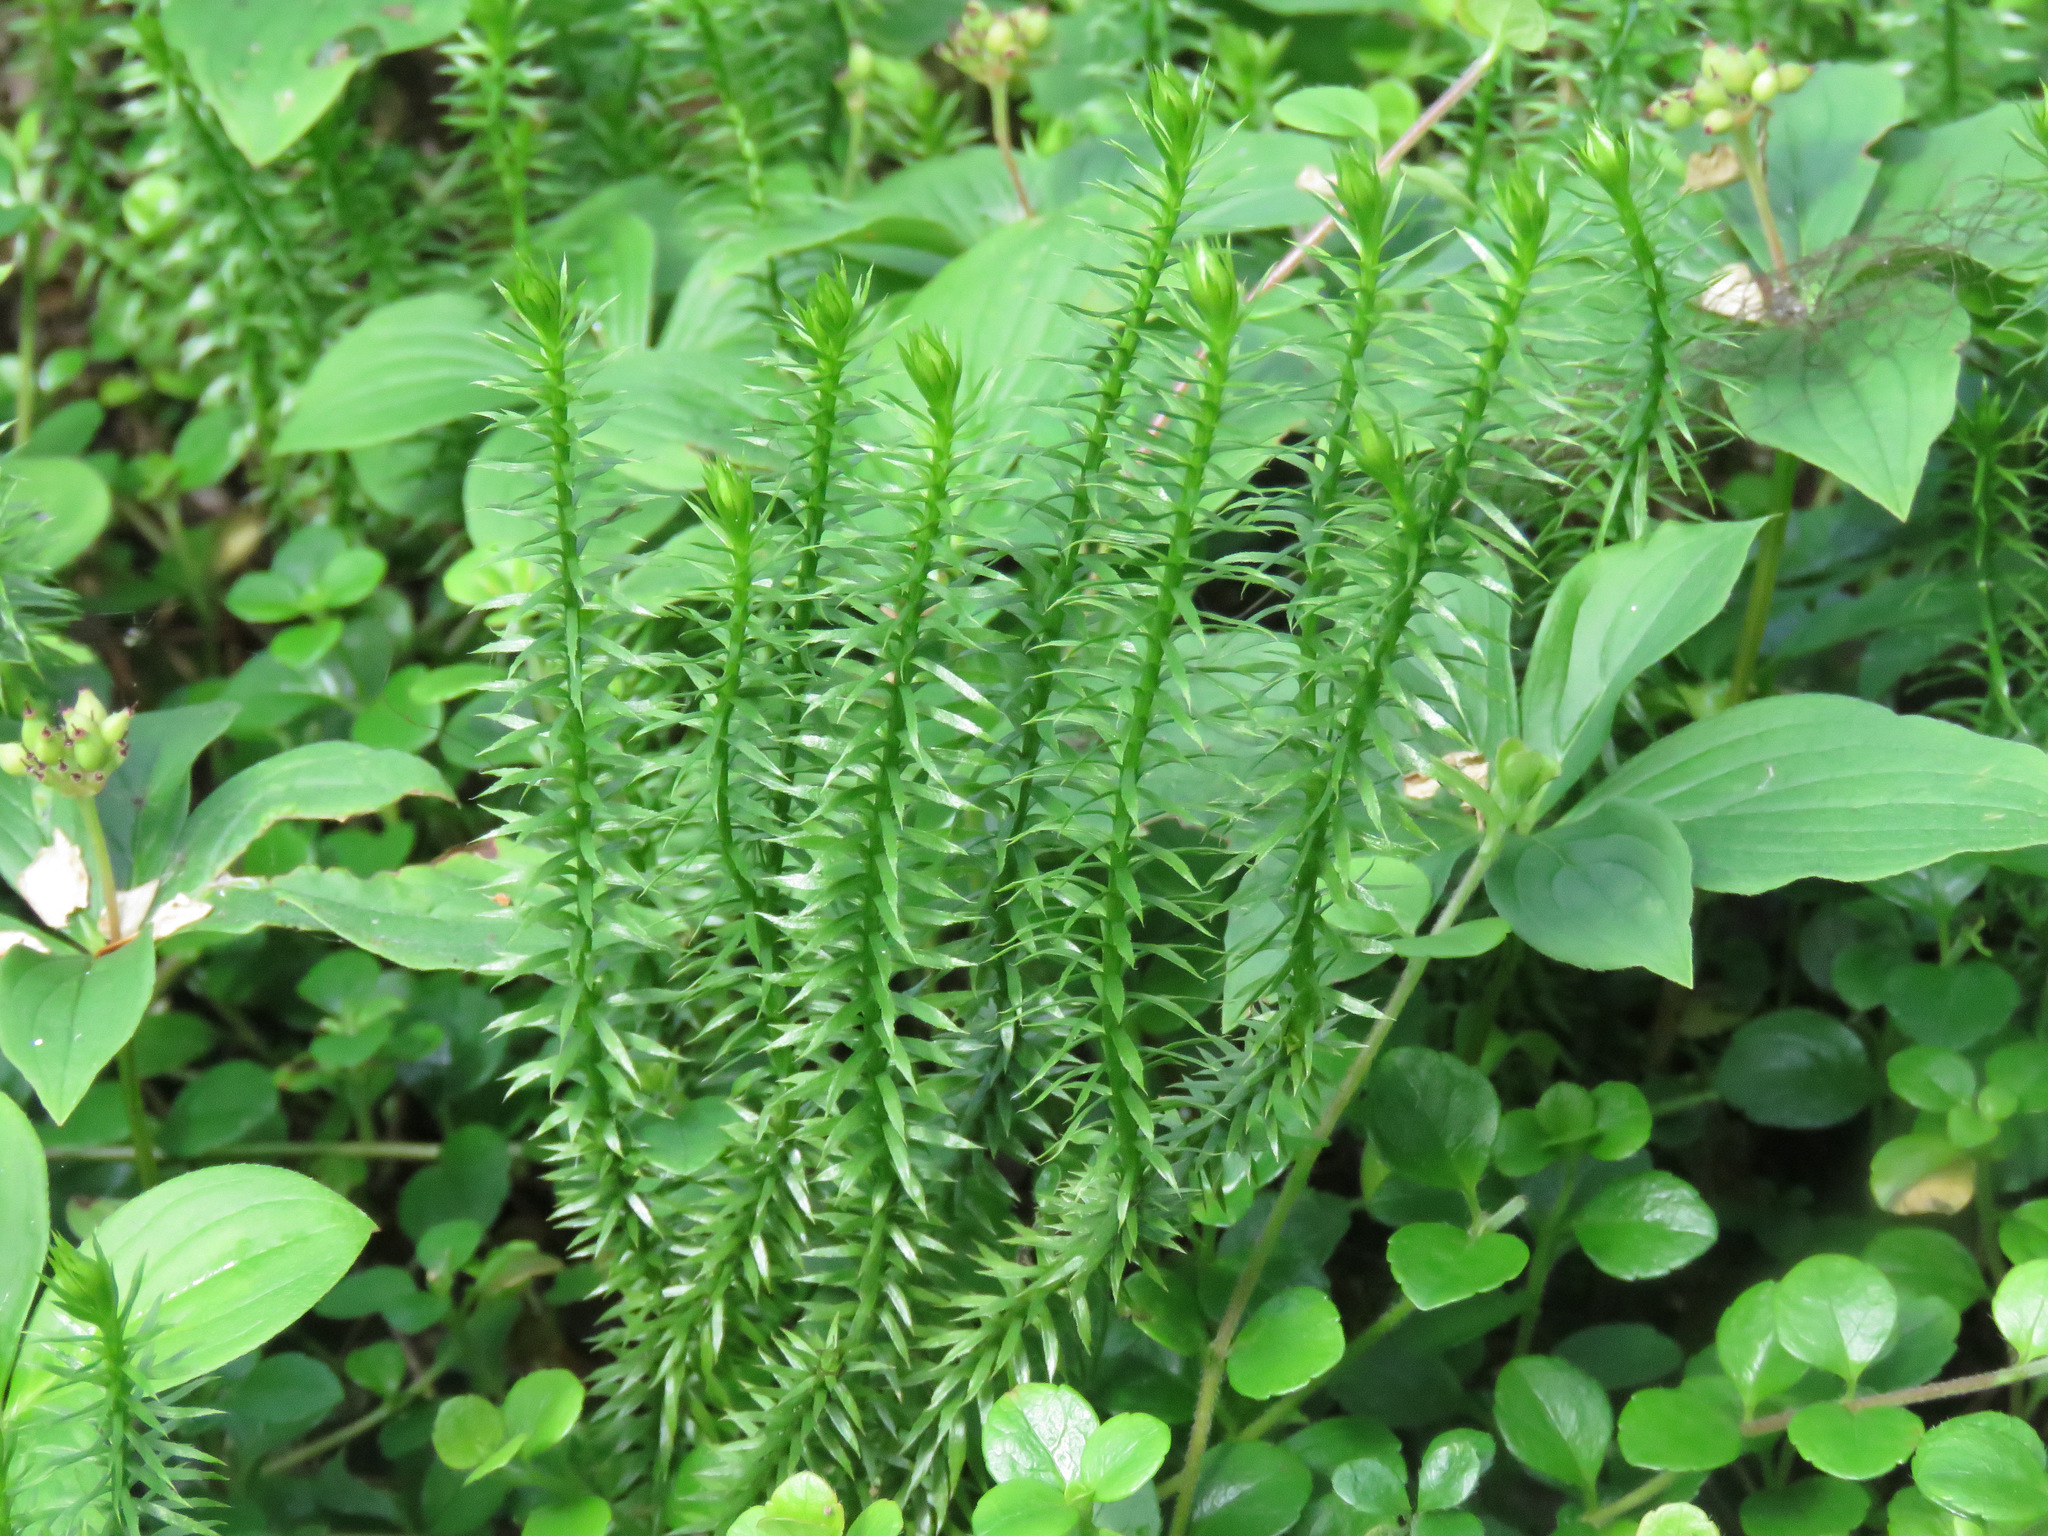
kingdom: Plantae
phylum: Tracheophyta
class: Lycopodiopsida
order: Lycopodiales
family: Lycopodiaceae
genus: Spinulum
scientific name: Spinulum annotinum
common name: Interrupted club-moss
